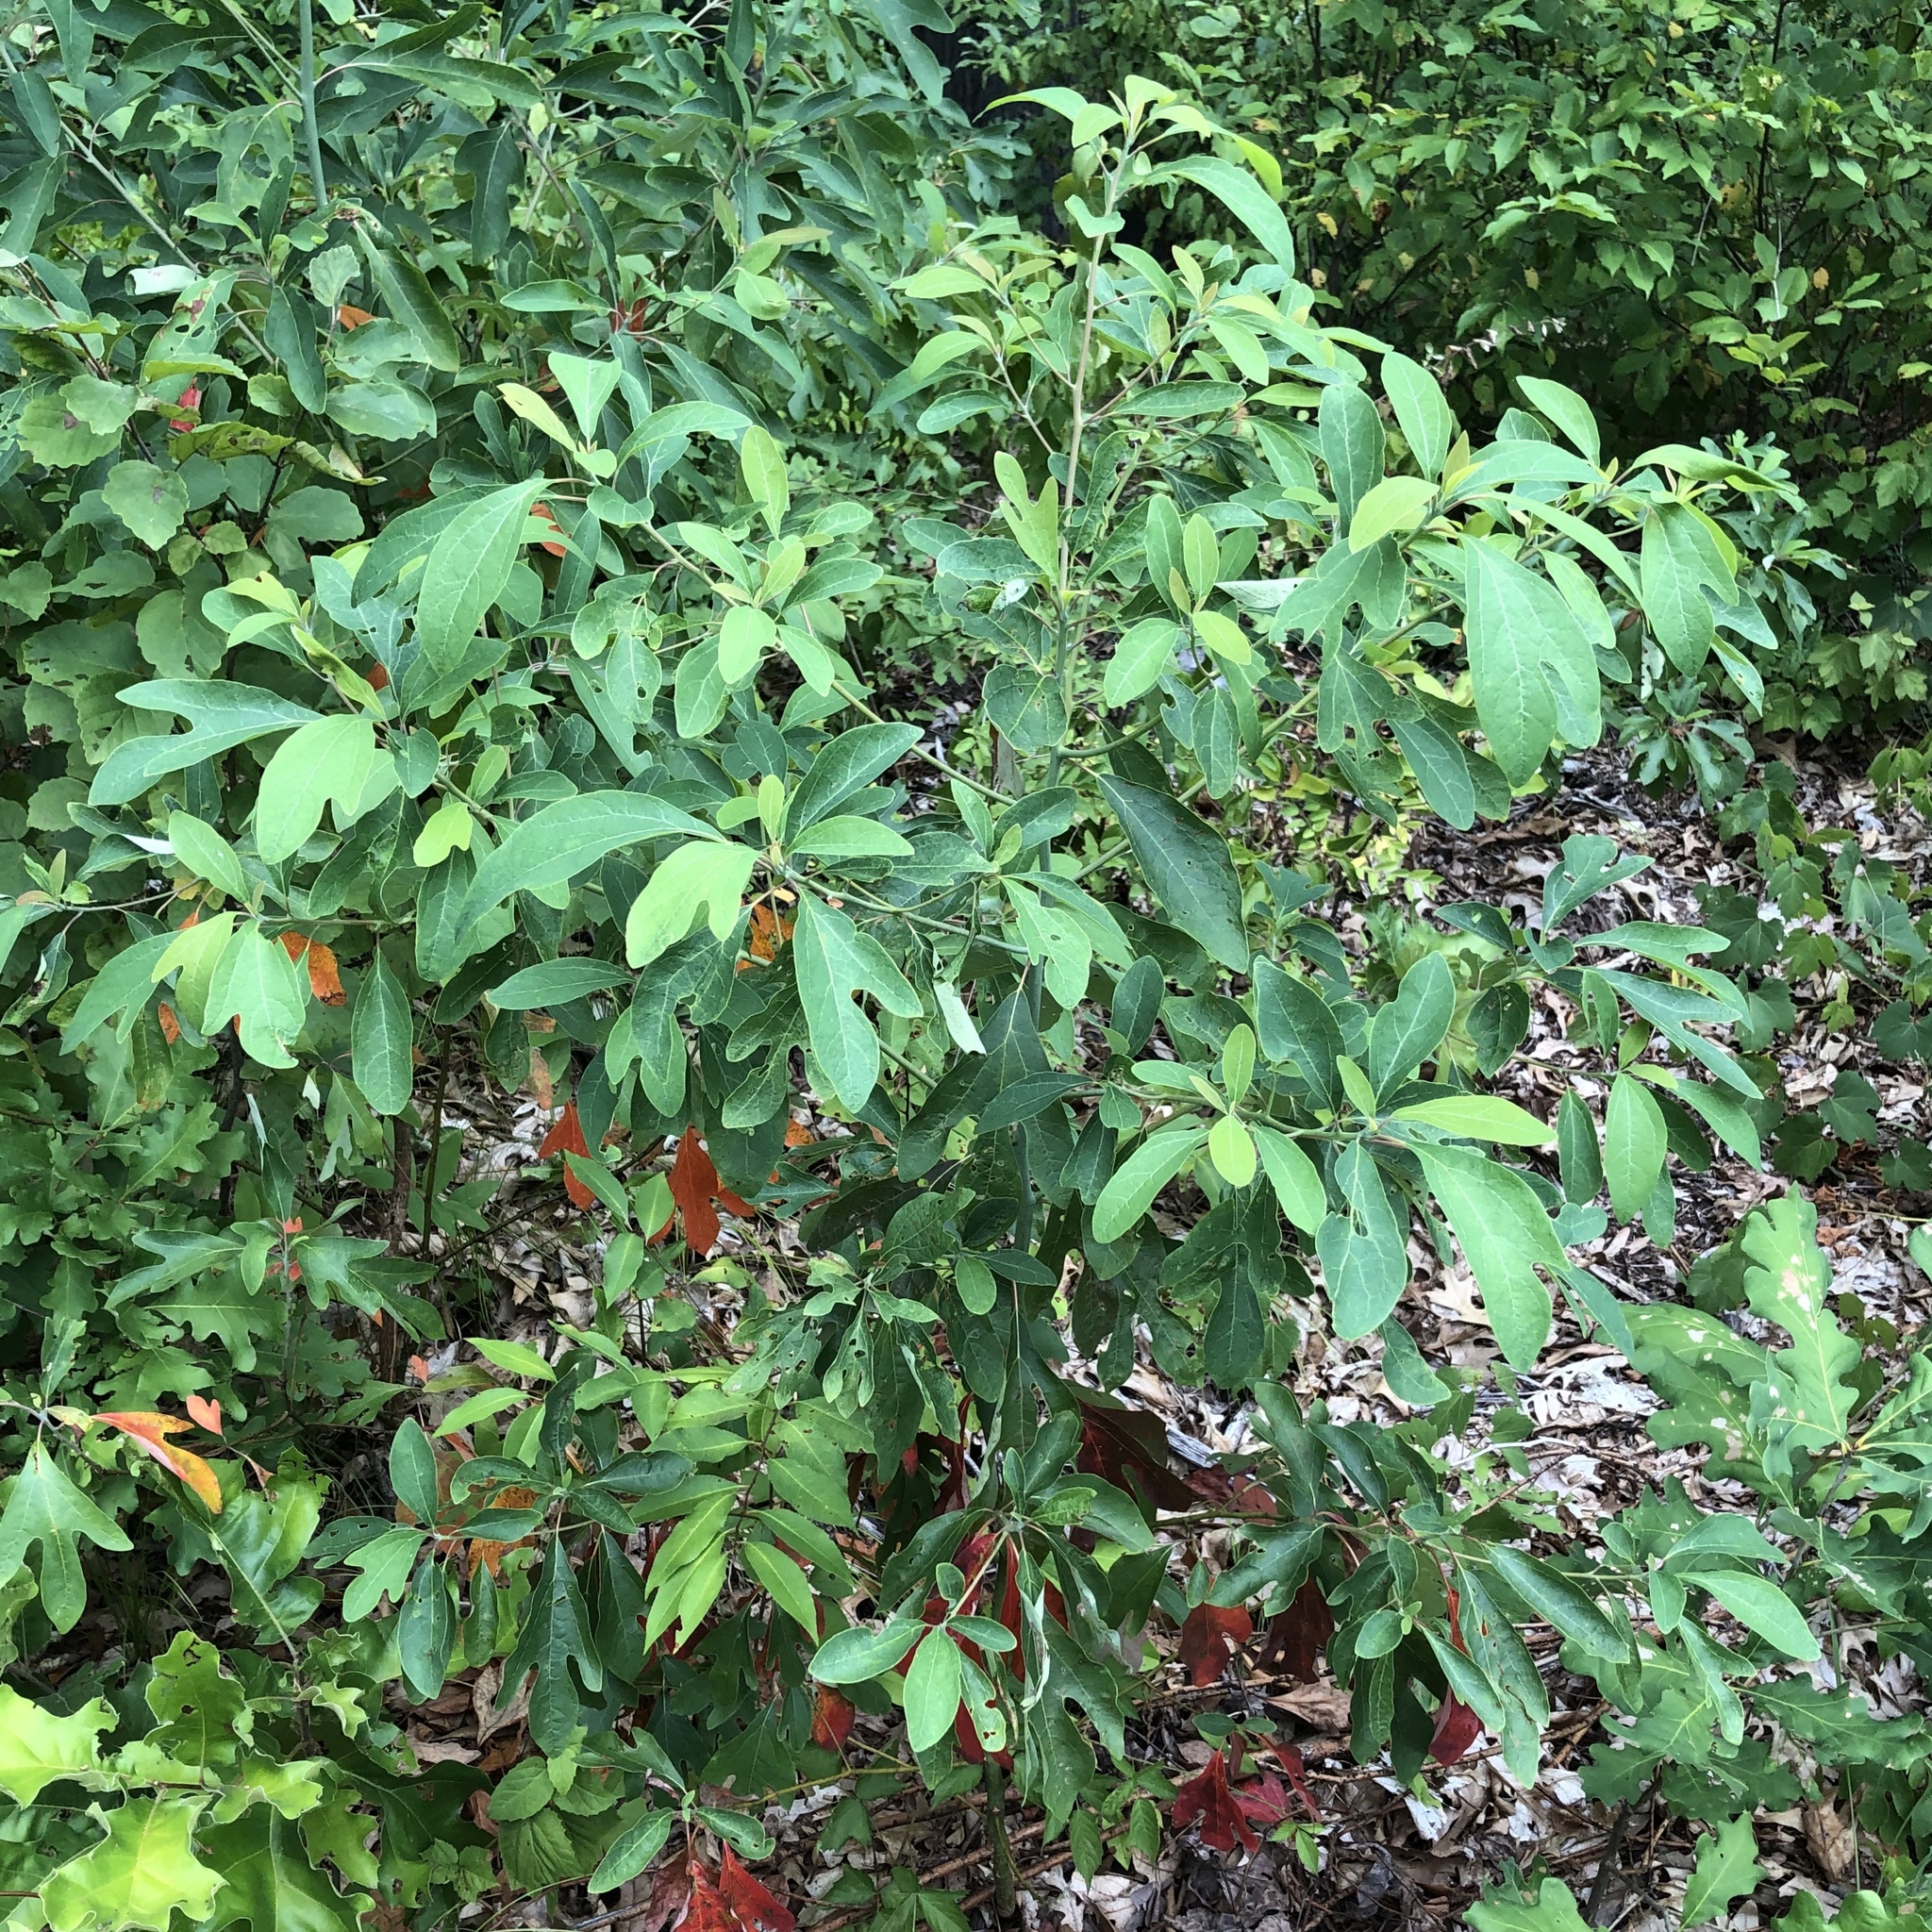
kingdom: Plantae
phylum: Tracheophyta
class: Magnoliopsida
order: Laurales
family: Lauraceae
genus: Sassafras
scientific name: Sassafras albidum
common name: Sassafras
